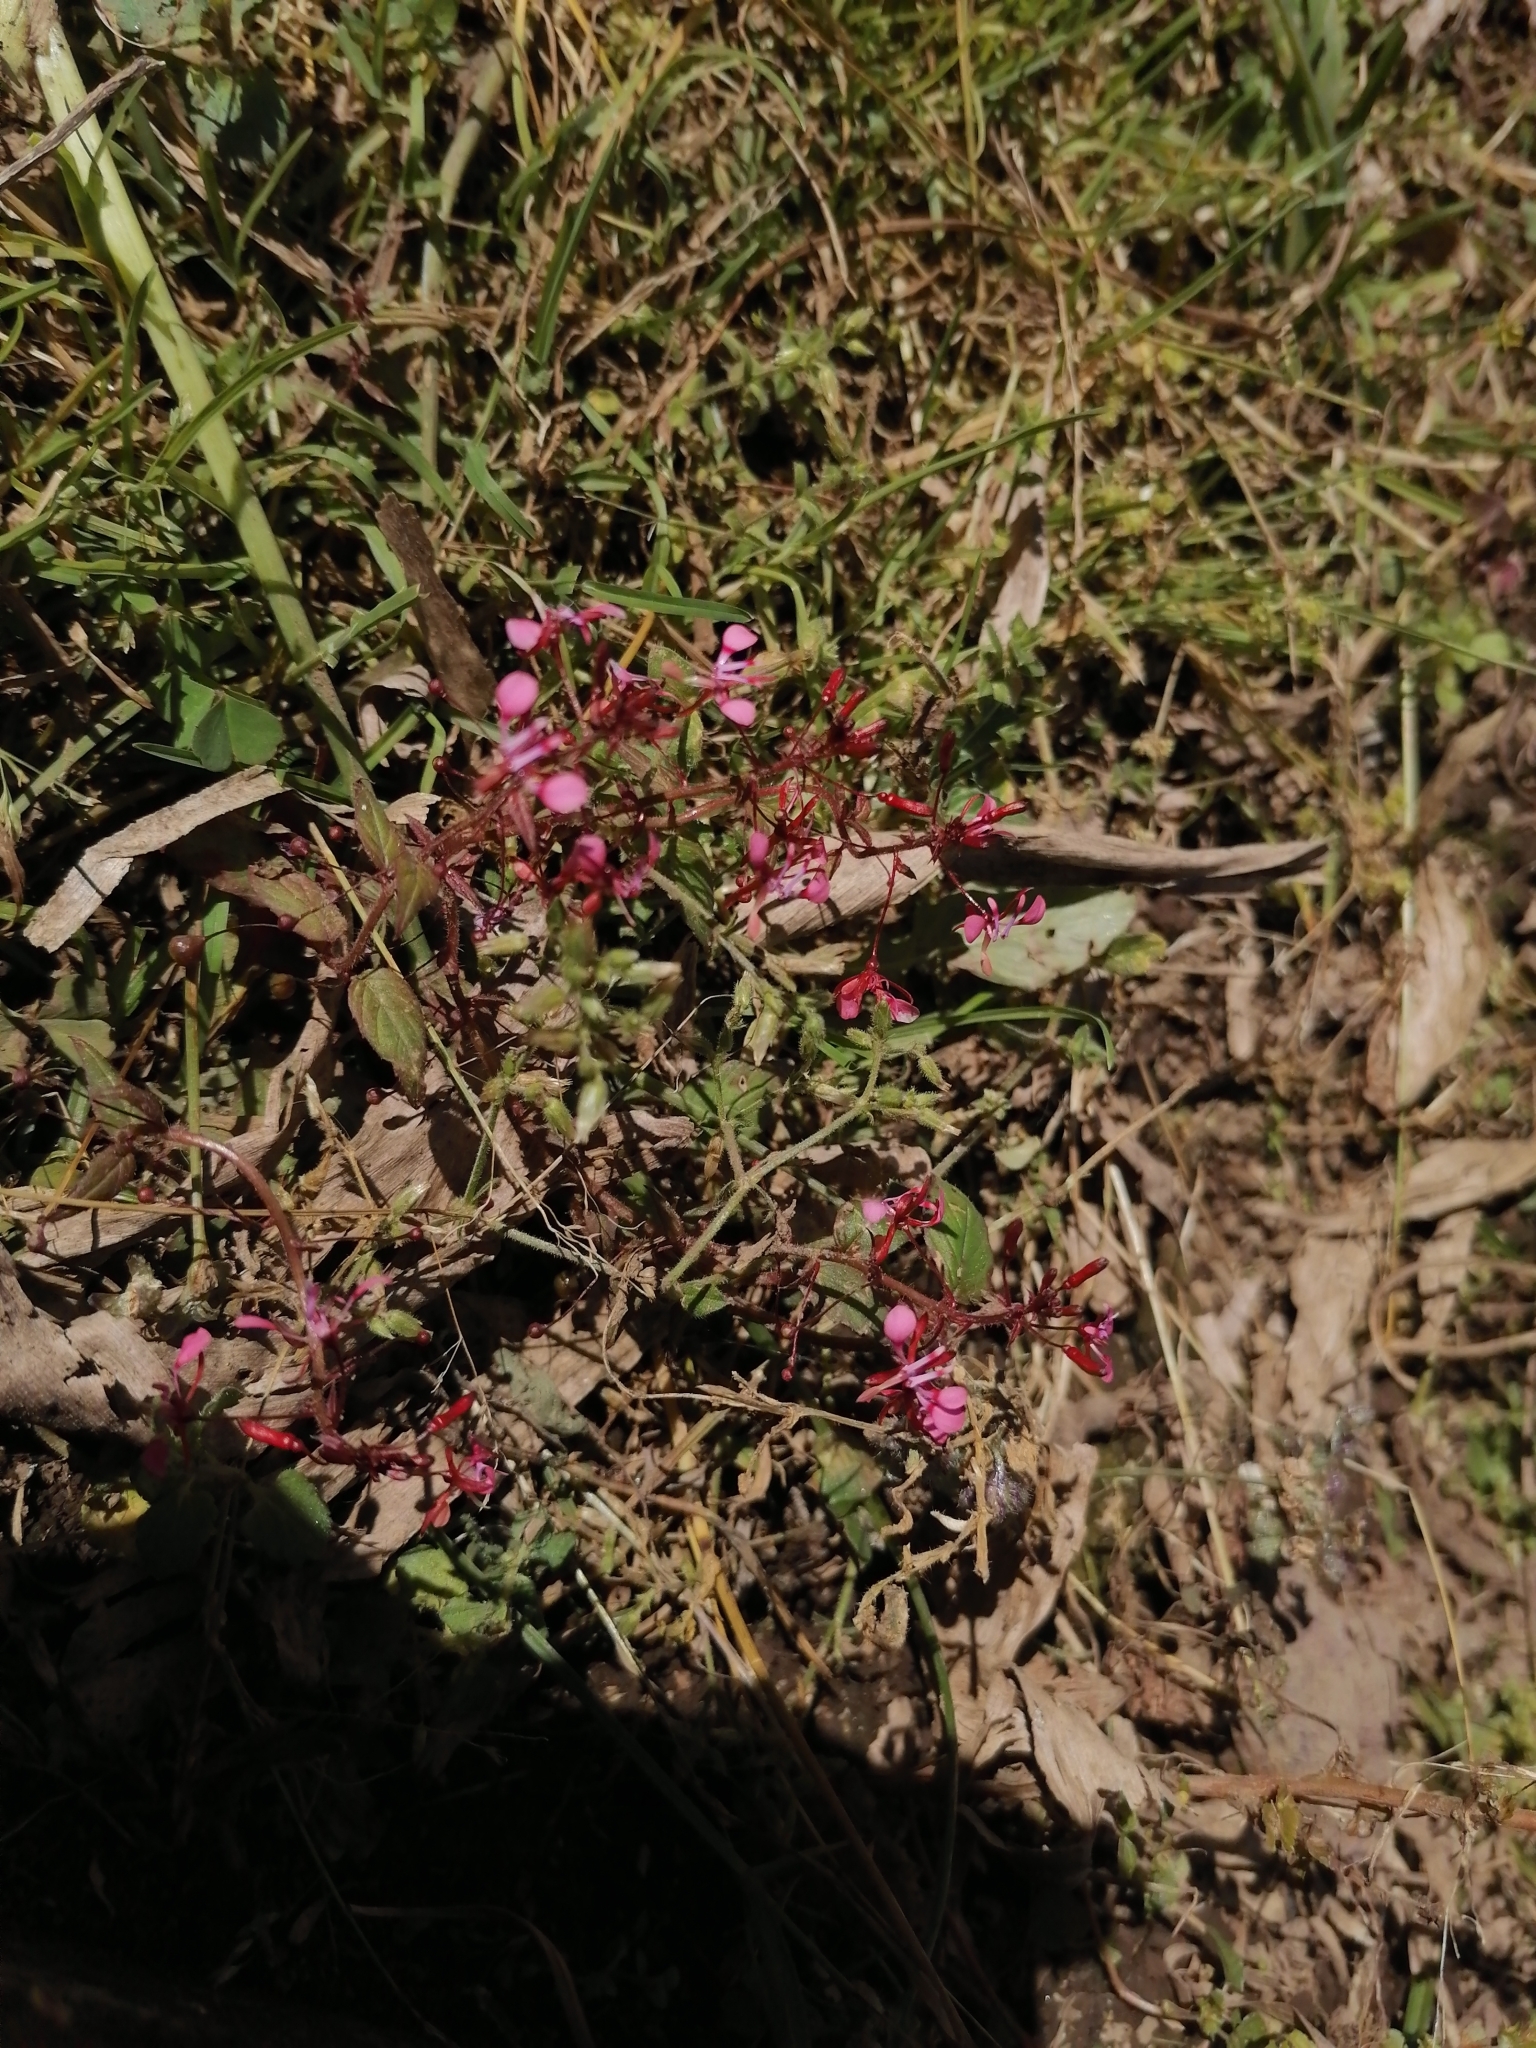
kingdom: Plantae
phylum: Tracheophyta
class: Magnoliopsida
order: Myrtales
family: Onagraceae
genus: Lopezia
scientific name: Lopezia racemosa
